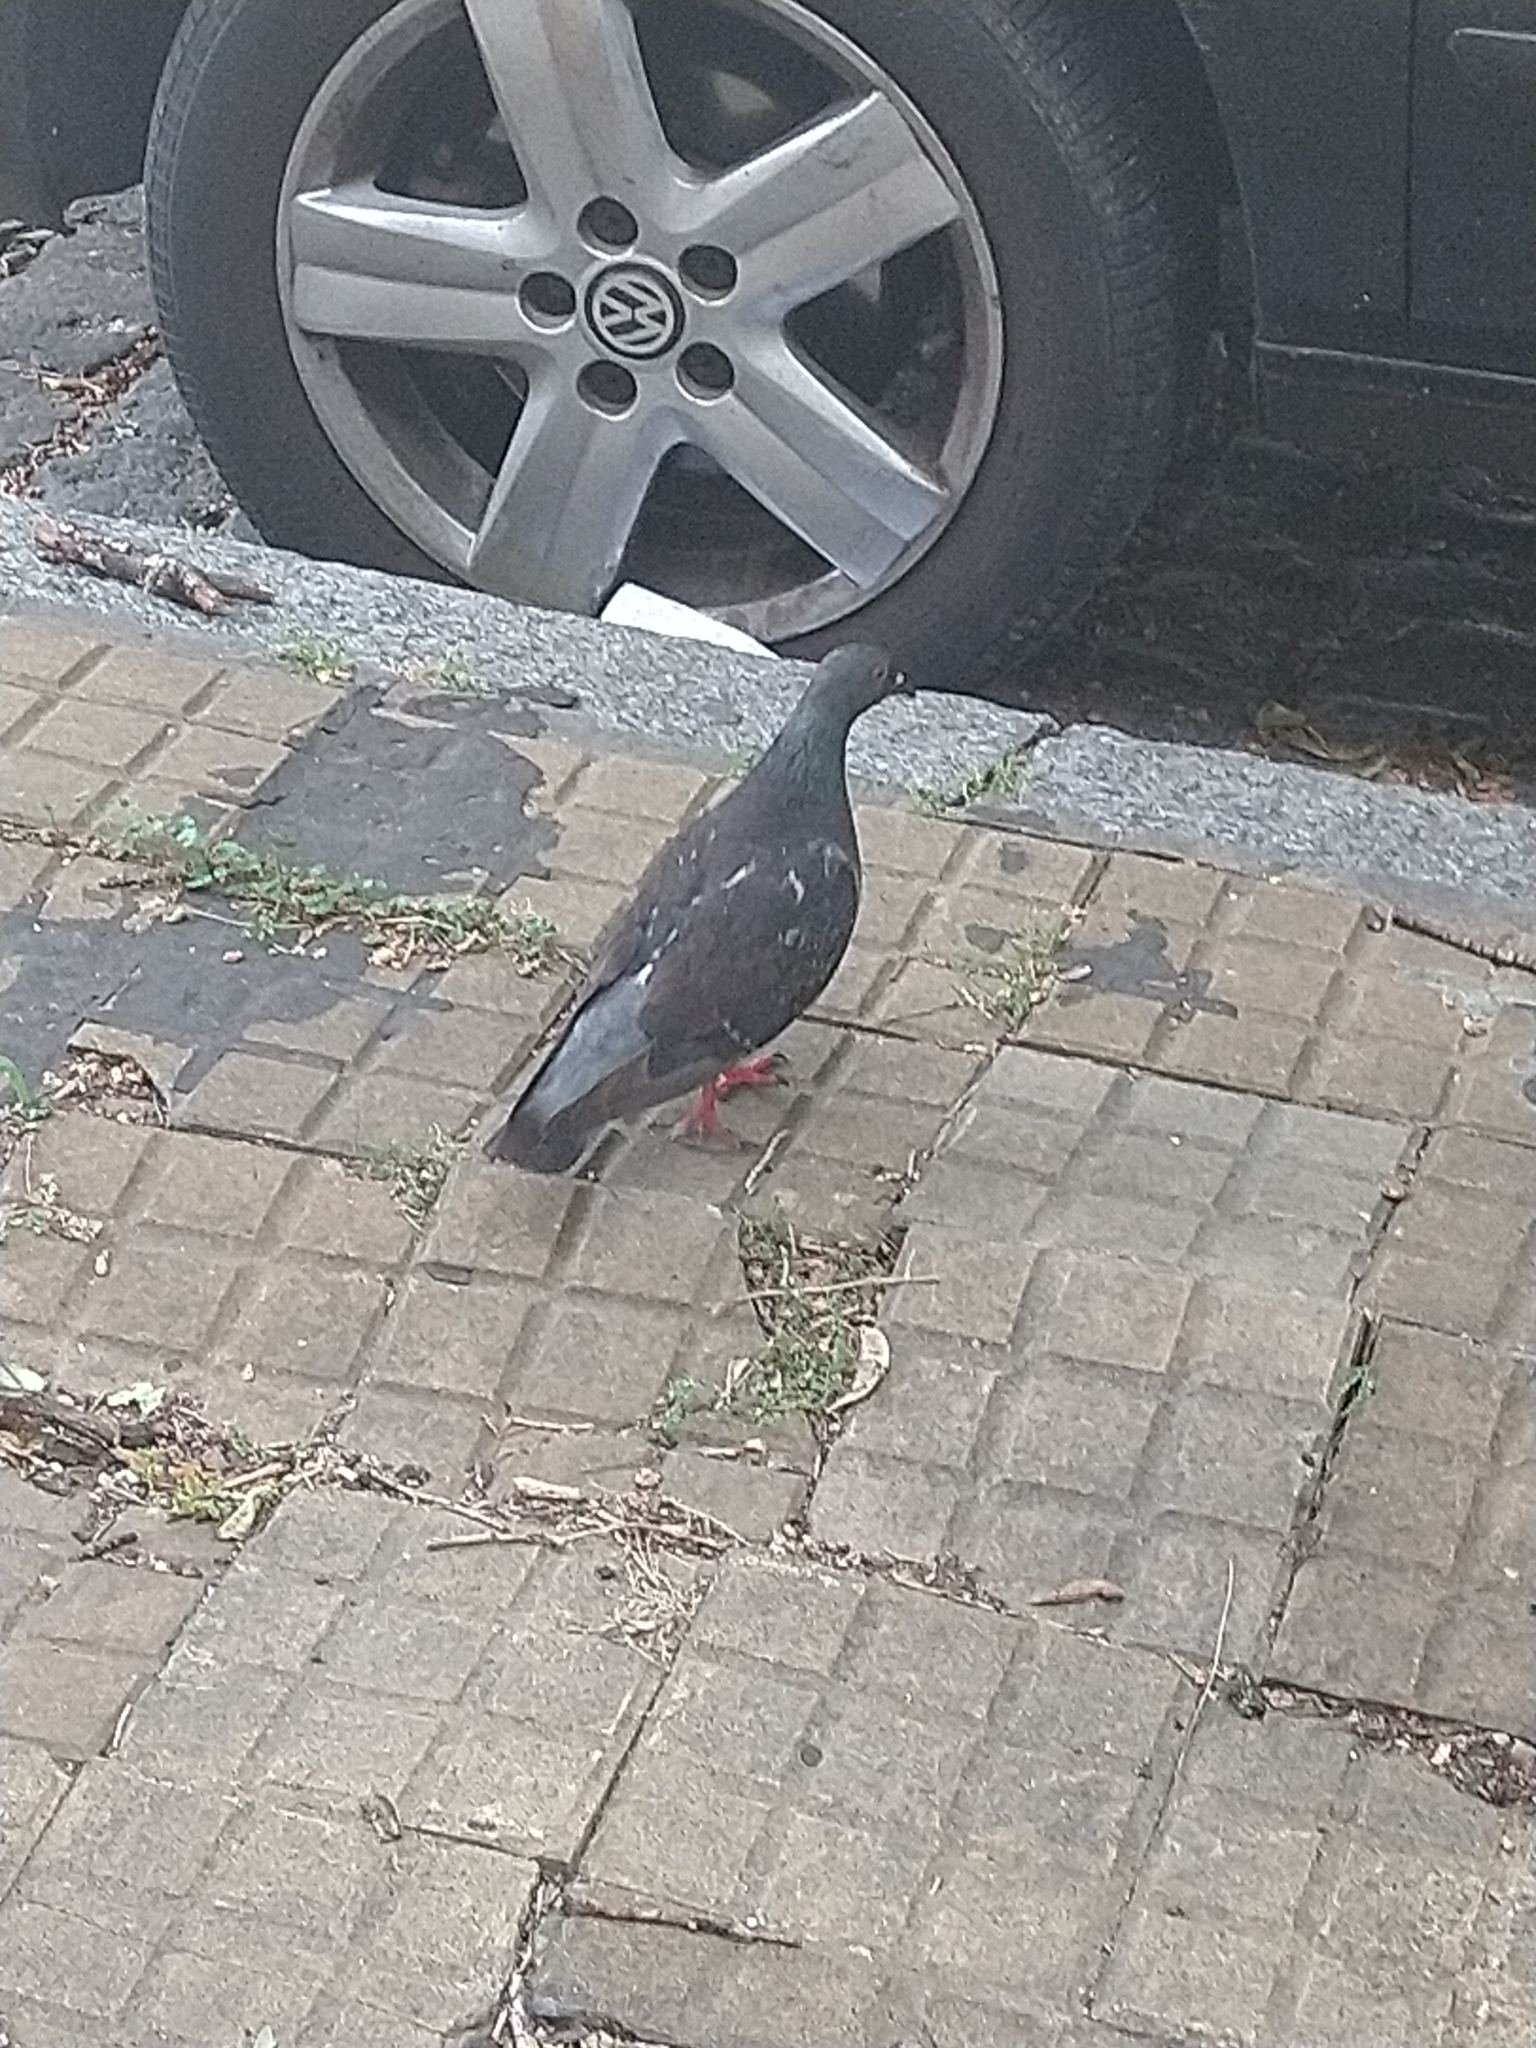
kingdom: Animalia
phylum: Chordata
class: Aves
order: Columbiformes
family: Columbidae
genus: Columba
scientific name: Columba livia
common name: Rock pigeon
